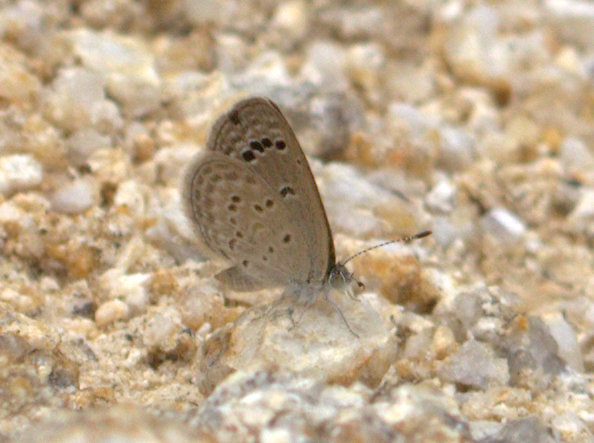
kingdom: Animalia
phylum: Arthropoda
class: Insecta
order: Lepidoptera
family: Lycaenidae
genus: Zizina
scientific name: Zizina otis
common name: Lesser grass blue
